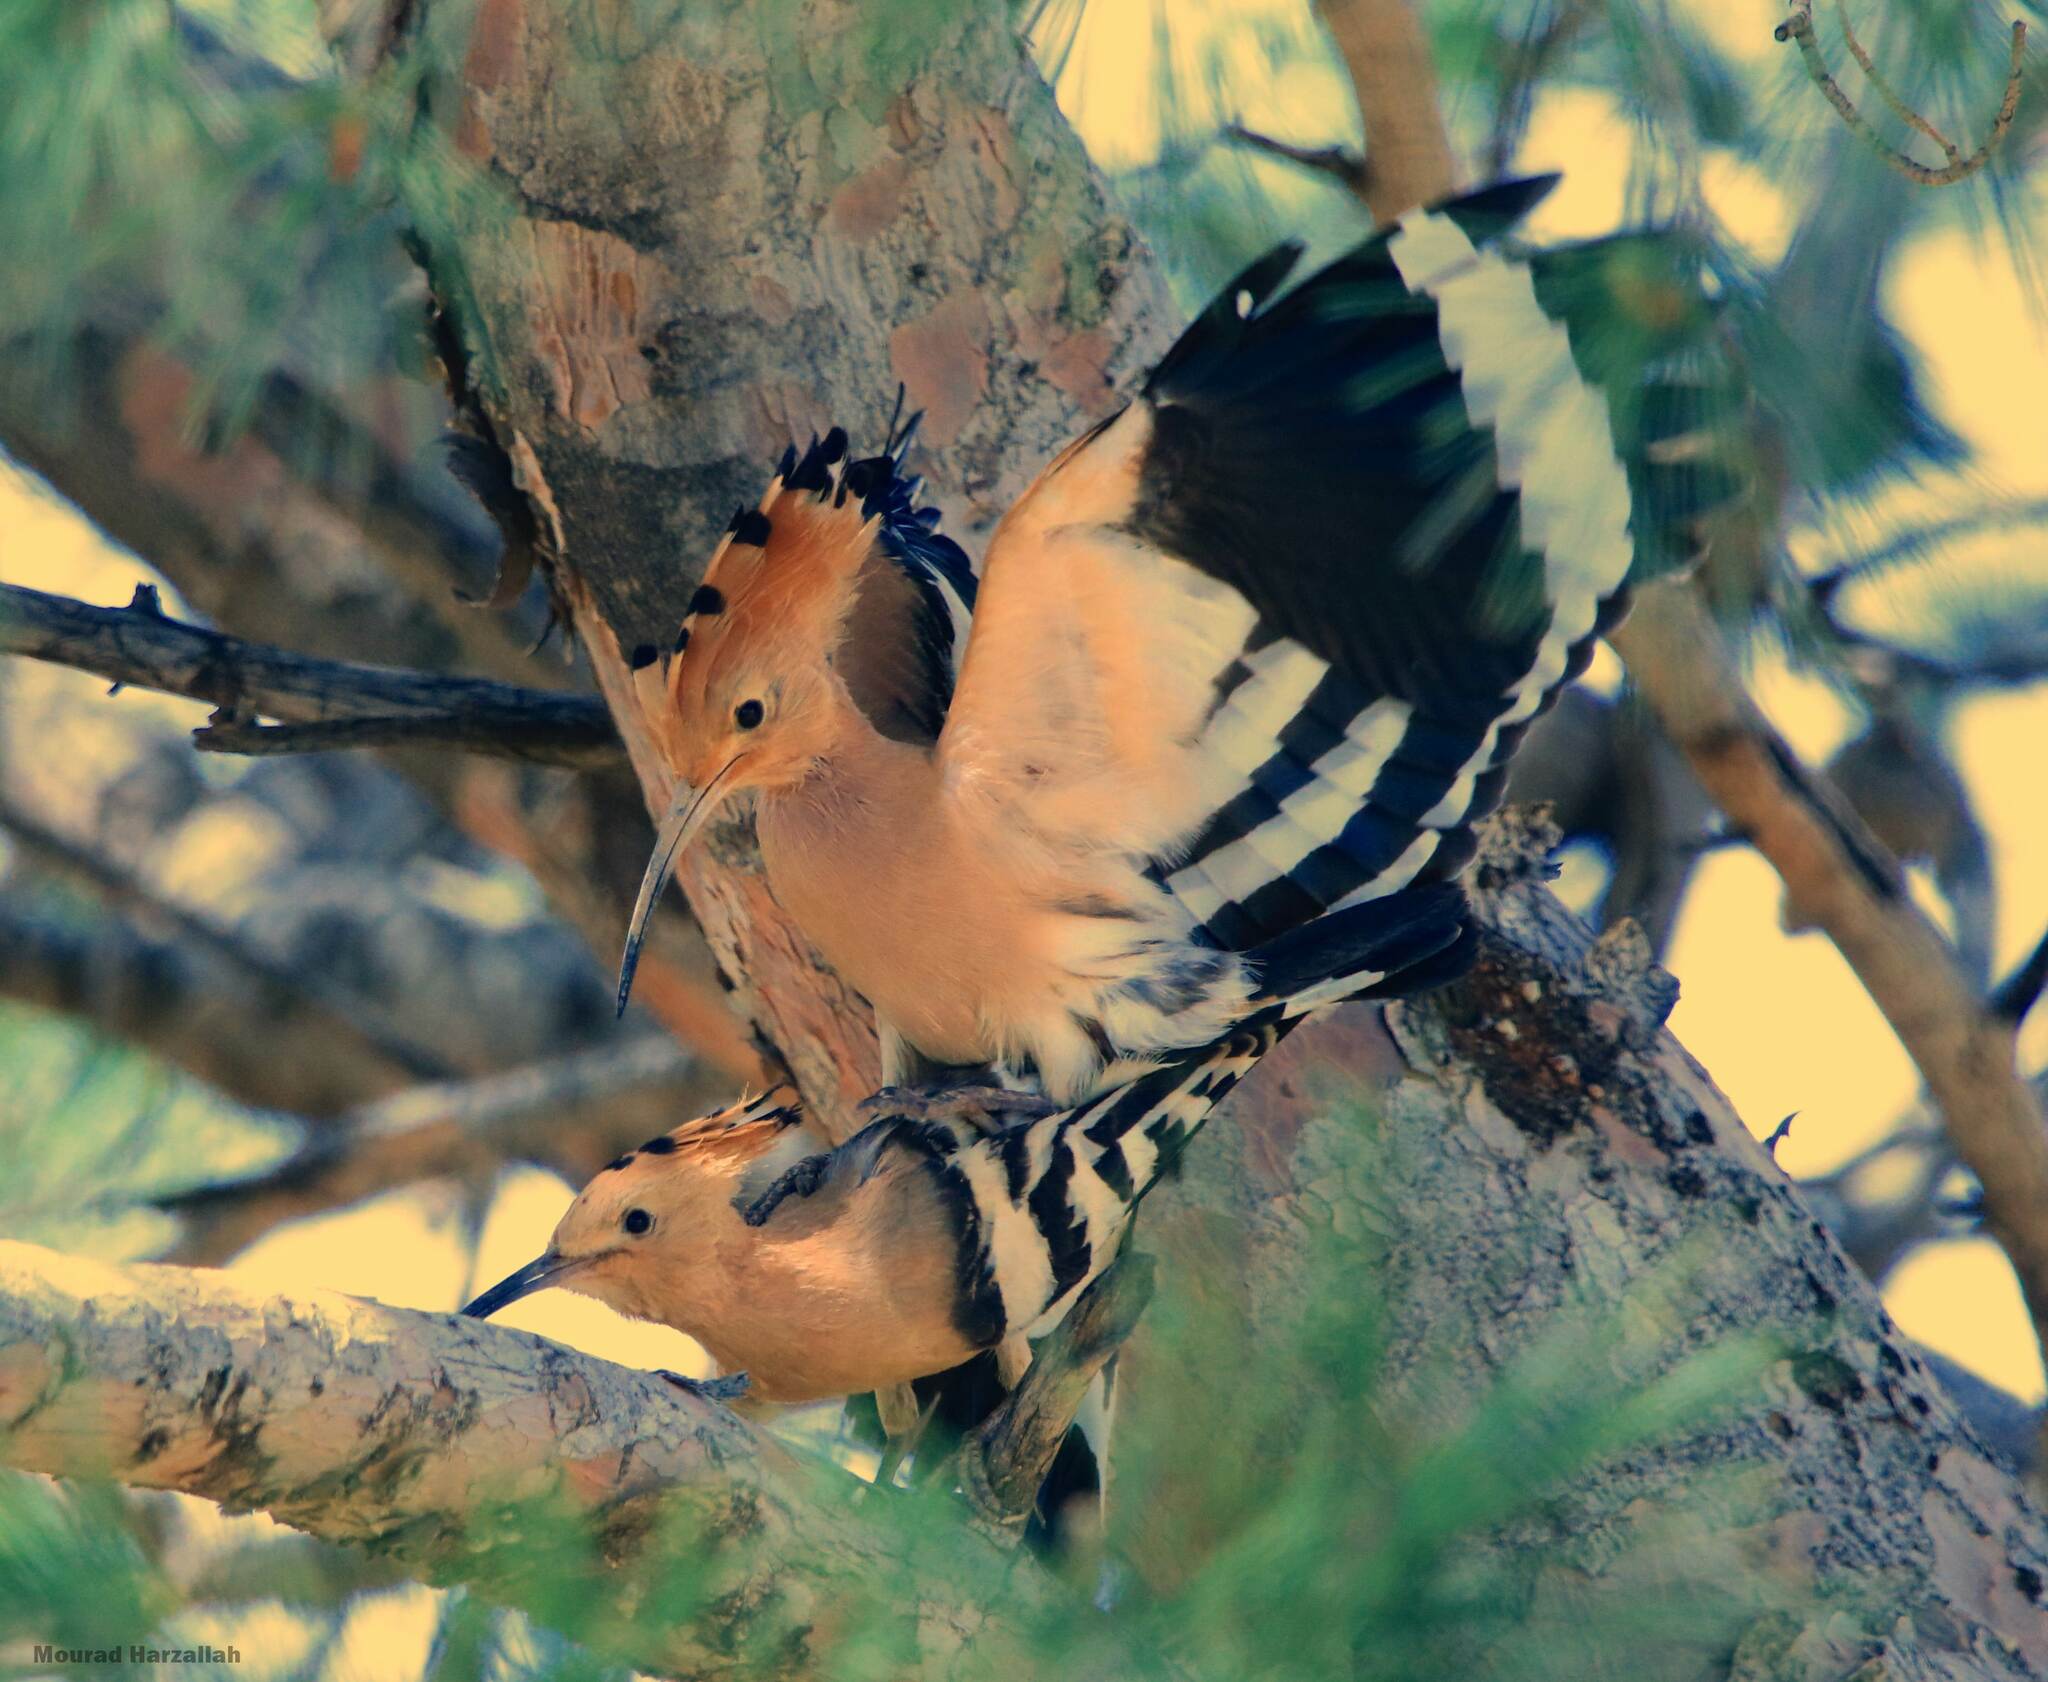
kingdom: Animalia
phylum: Chordata
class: Aves
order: Bucerotiformes
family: Upupidae
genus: Upupa
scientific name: Upupa epops
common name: Eurasian hoopoe
